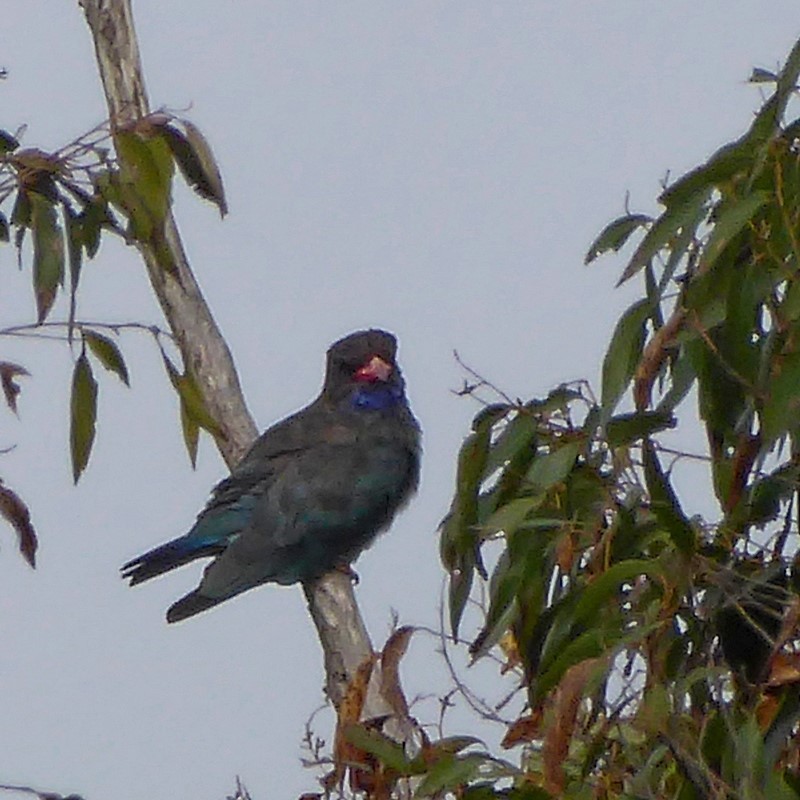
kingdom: Animalia
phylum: Chordata
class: Aves
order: Coraciiformes
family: Coraciidae
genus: Eurystomus
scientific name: Eurystomus orientalis
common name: Oriental dollarbird
